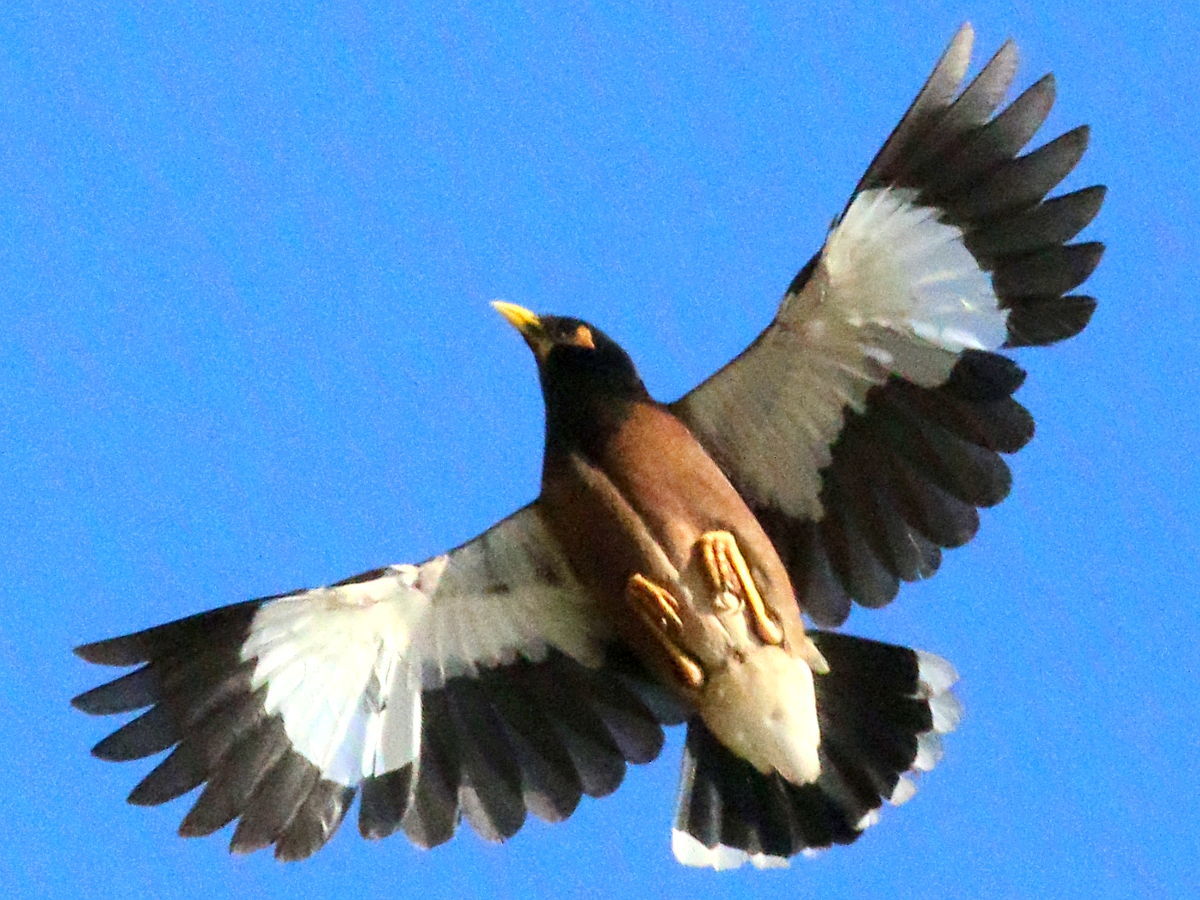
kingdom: Animalia
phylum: Chordata
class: Aves
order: Passeriformes
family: Sturnidae
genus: Acridotheres
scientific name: Acridotheres tristis
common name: Common myna
